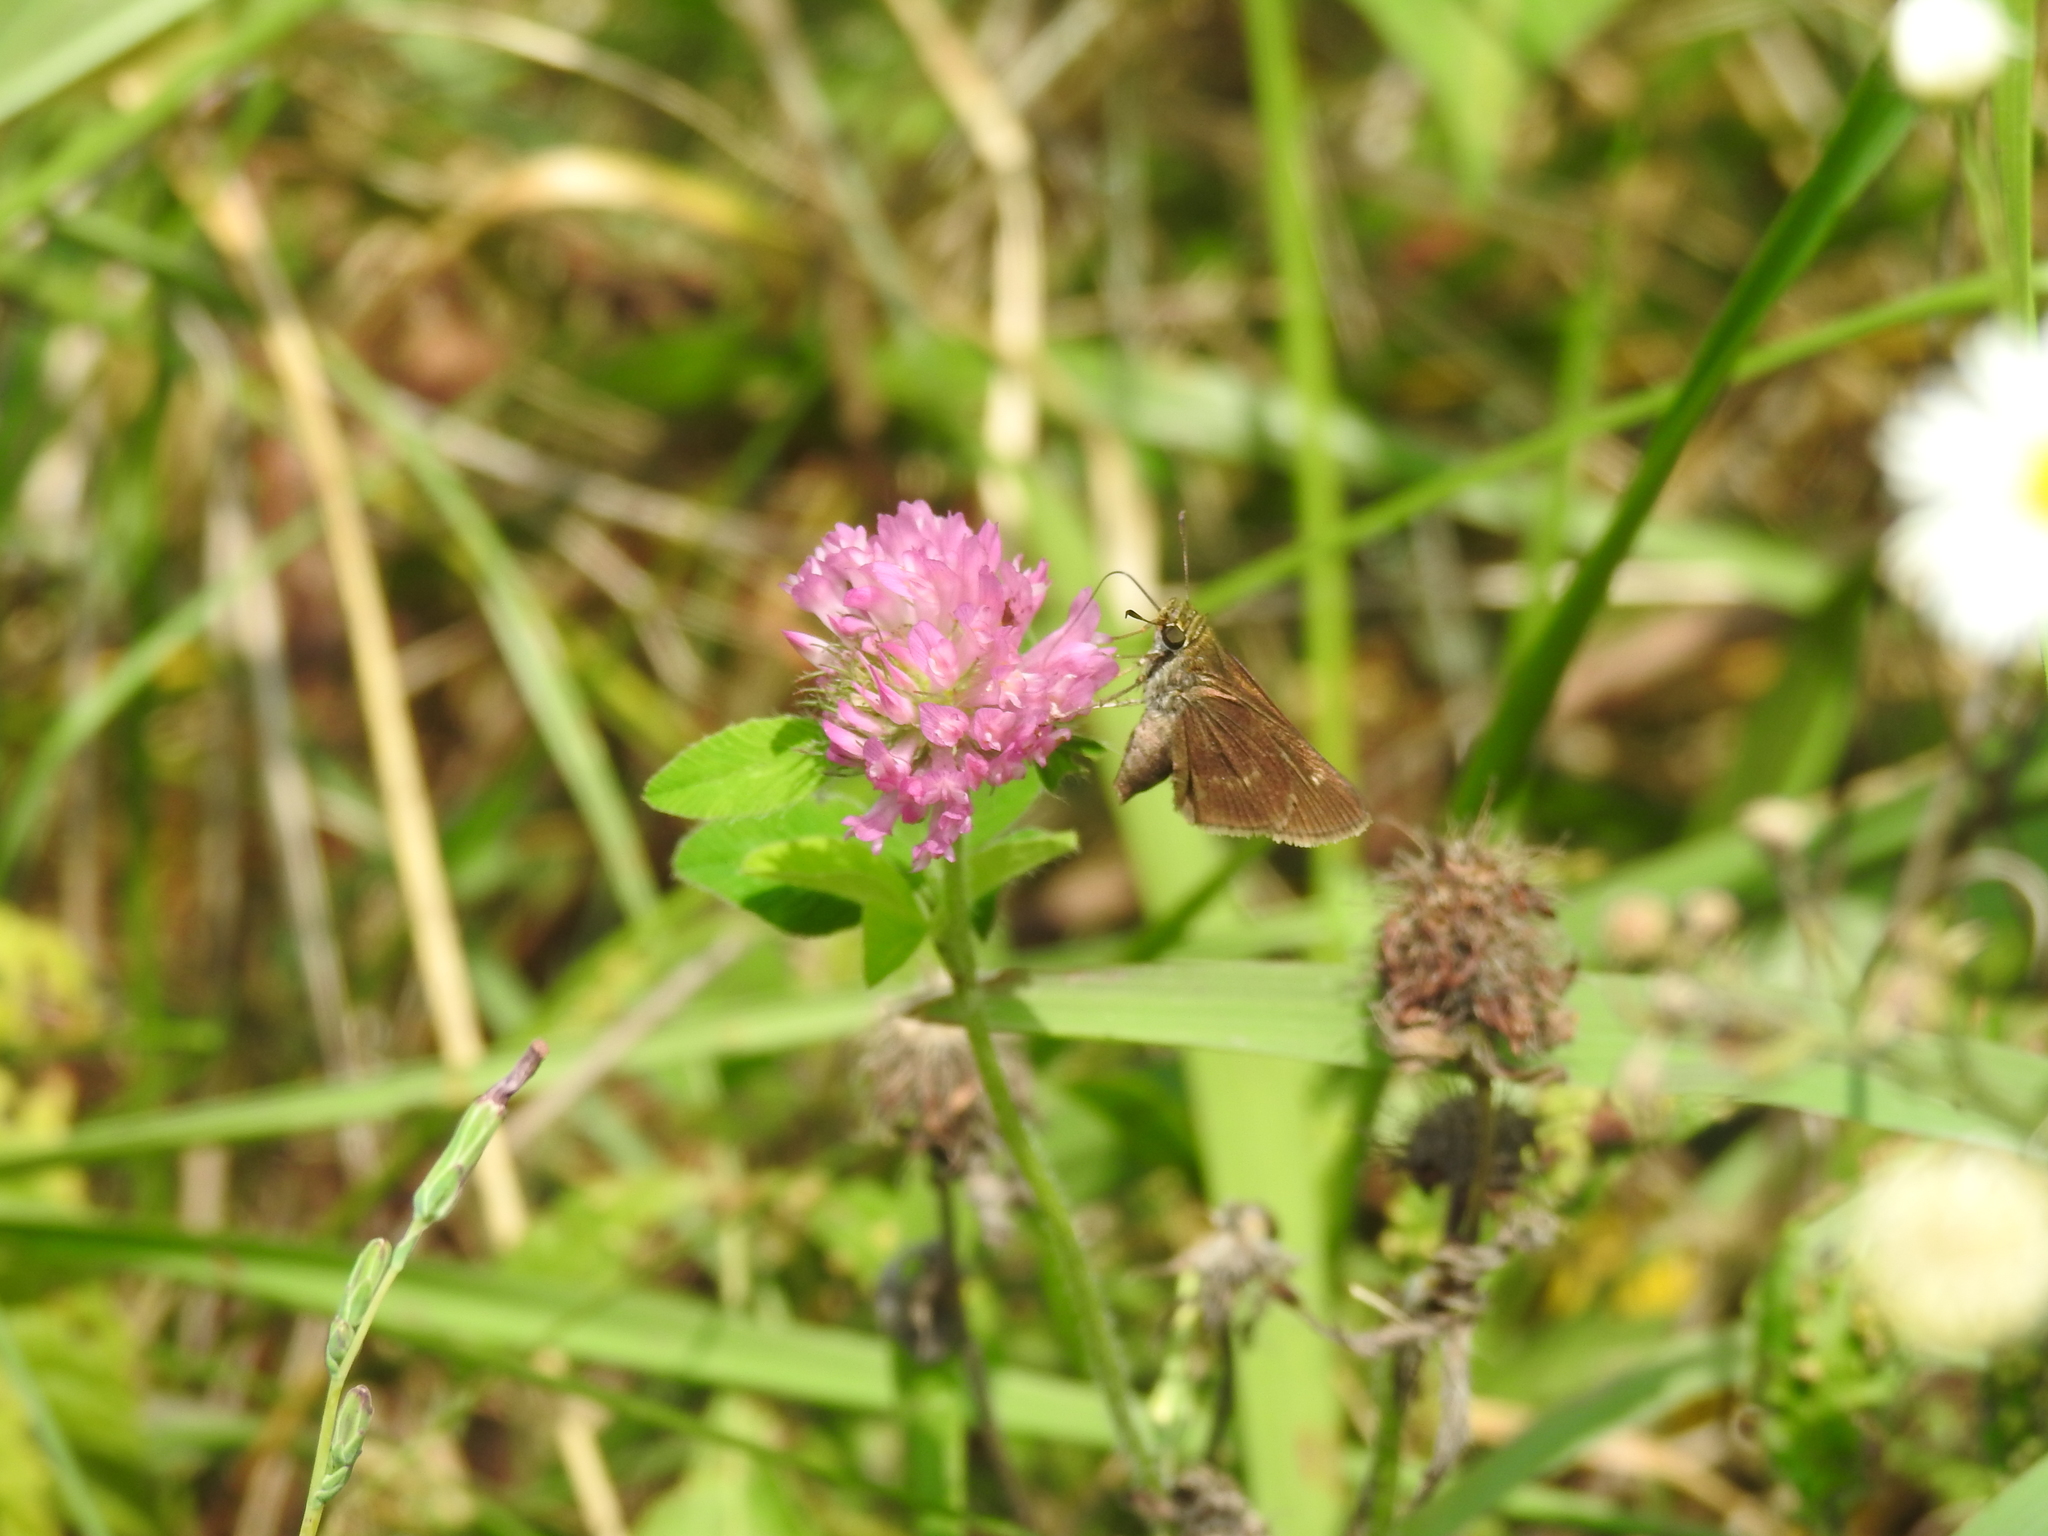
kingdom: Animalia
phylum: Arthropoda
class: Insecta
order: Lepidoptera
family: Hesperiidae
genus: Vernia
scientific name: Vernia verna
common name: Little glassywing
